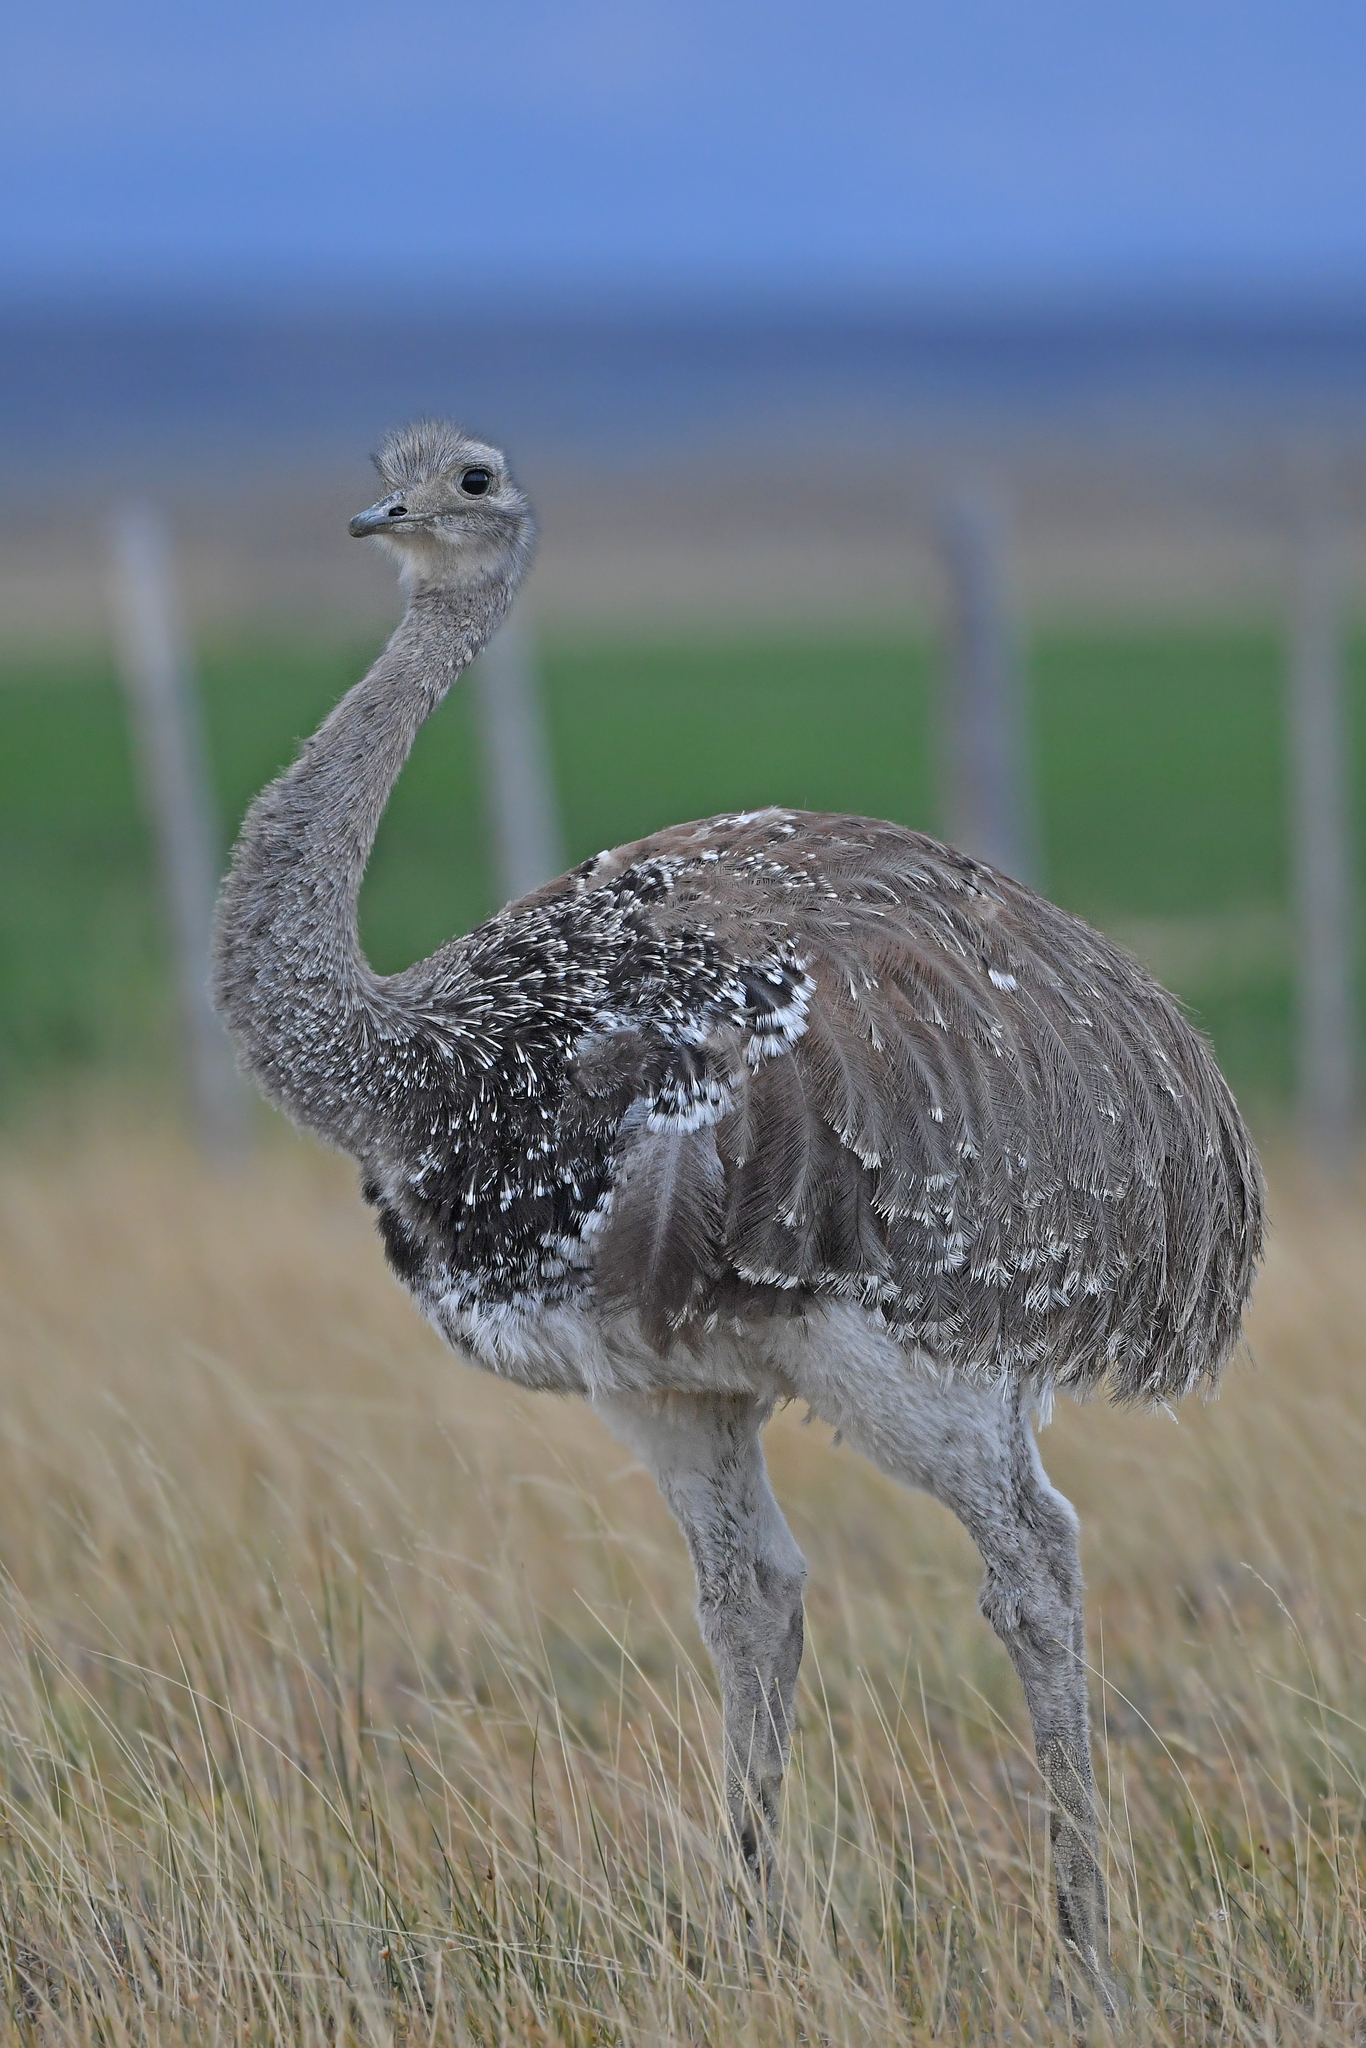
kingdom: Animalia
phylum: Chordata
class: Aves
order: Rheiformes
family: Rheidae
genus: Rhea
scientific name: Rhea pennata
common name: Lesser rhea
